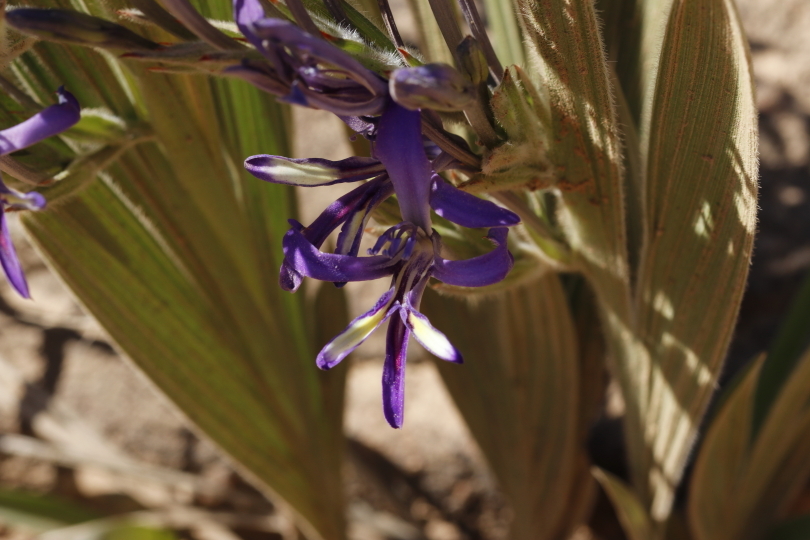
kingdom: Plantae
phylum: Tracheophyta
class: Liliopsida
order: Asparagales
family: Iridaceae
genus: Babiana
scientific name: Babiana ecklonii
